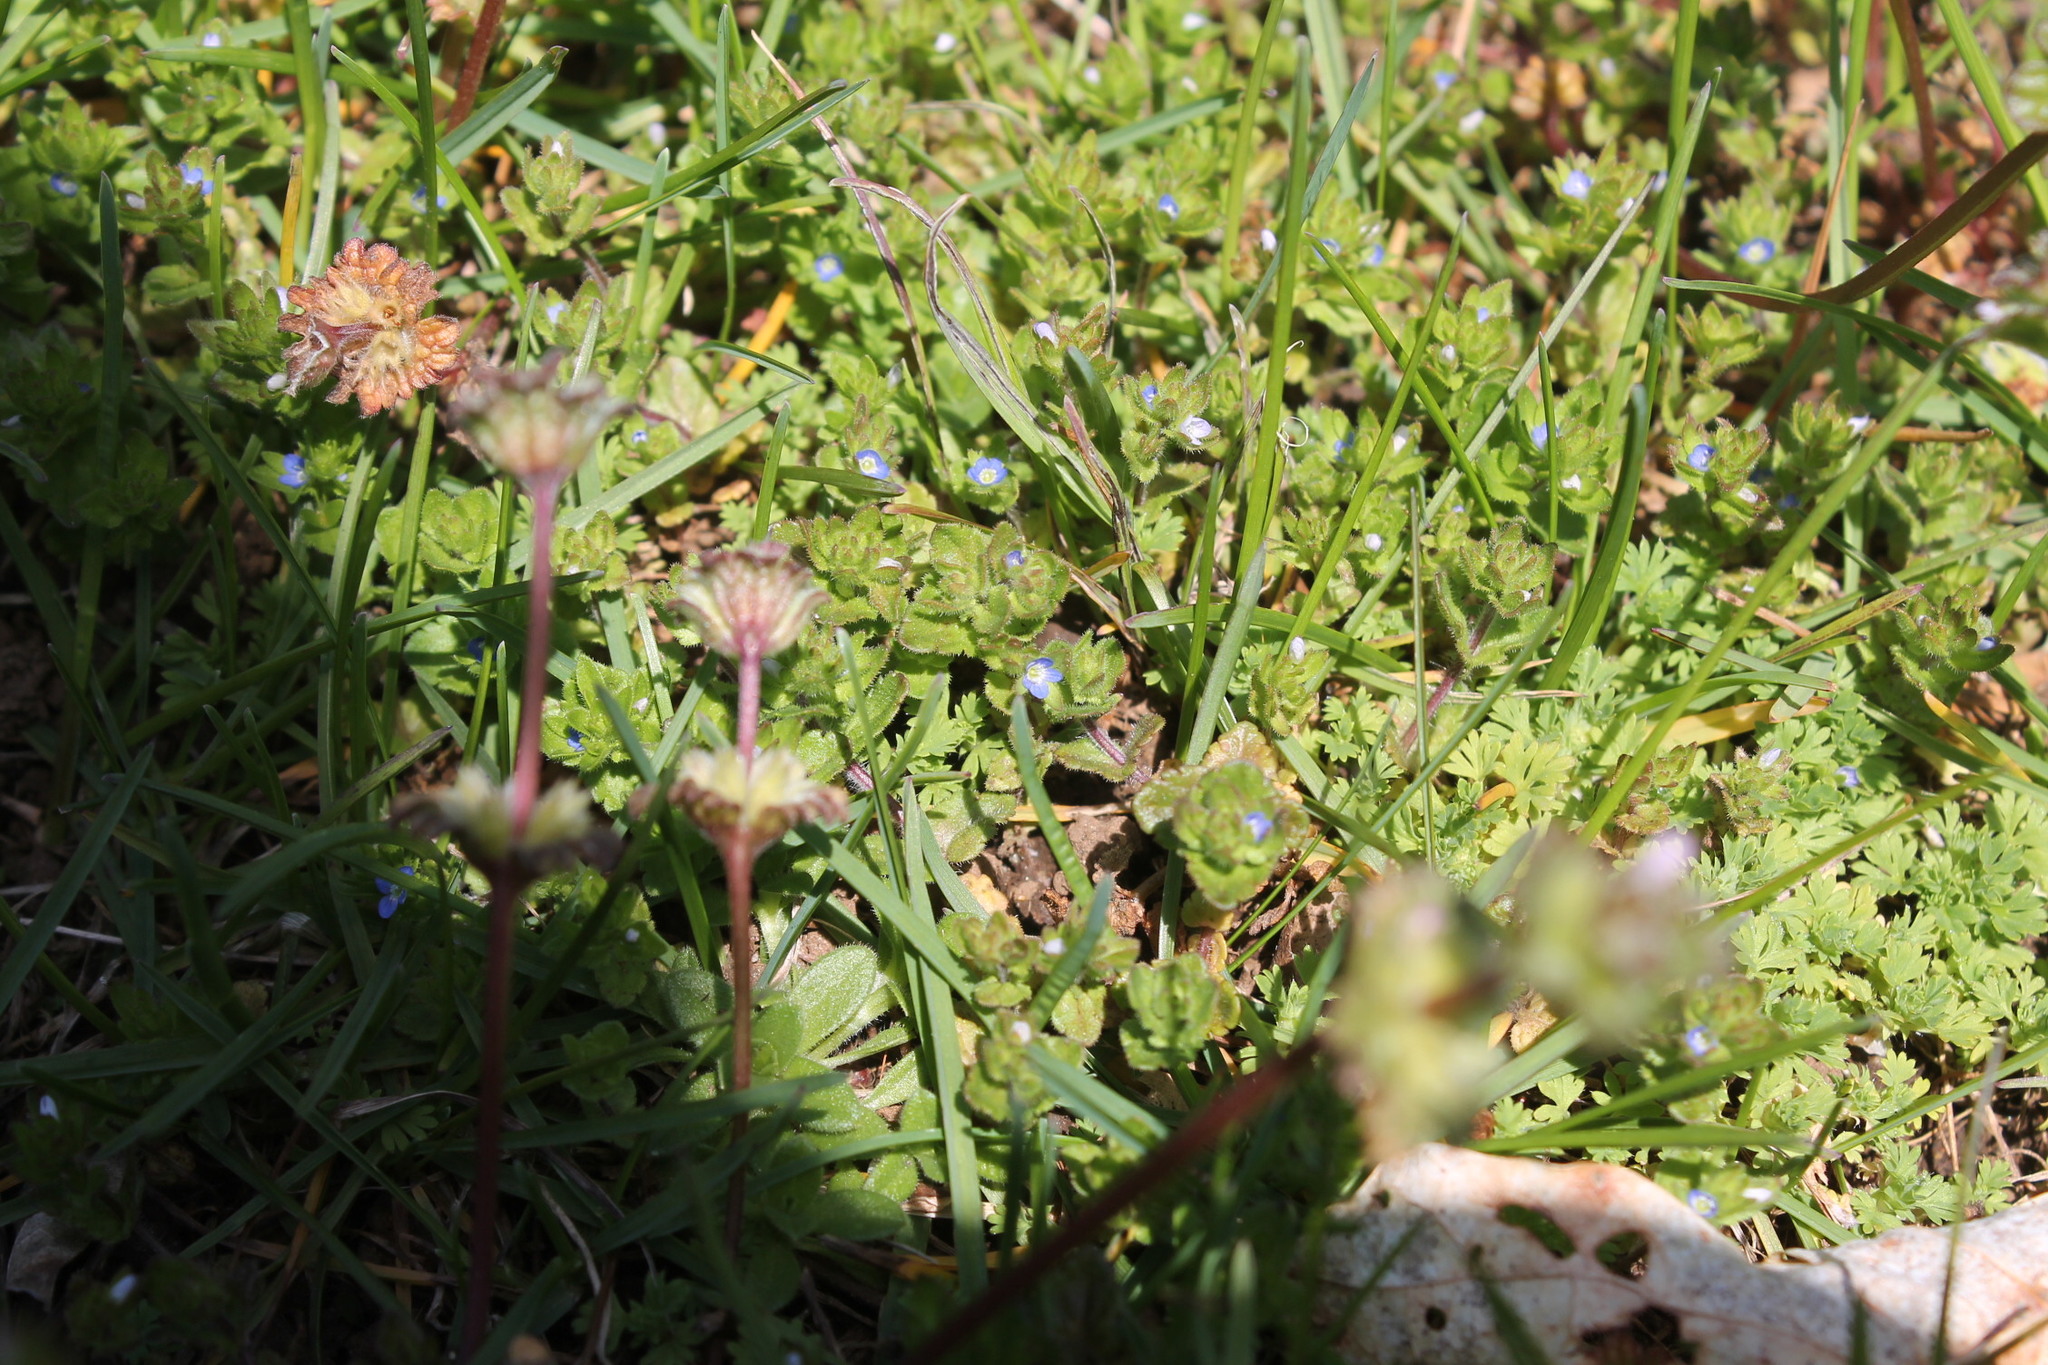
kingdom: Plantae
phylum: Tracheophyta
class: Magnoliopsida
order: Lamiales
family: Plantaginaceae
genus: Veronica
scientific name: Veronica persica
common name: Common field-speedwell
